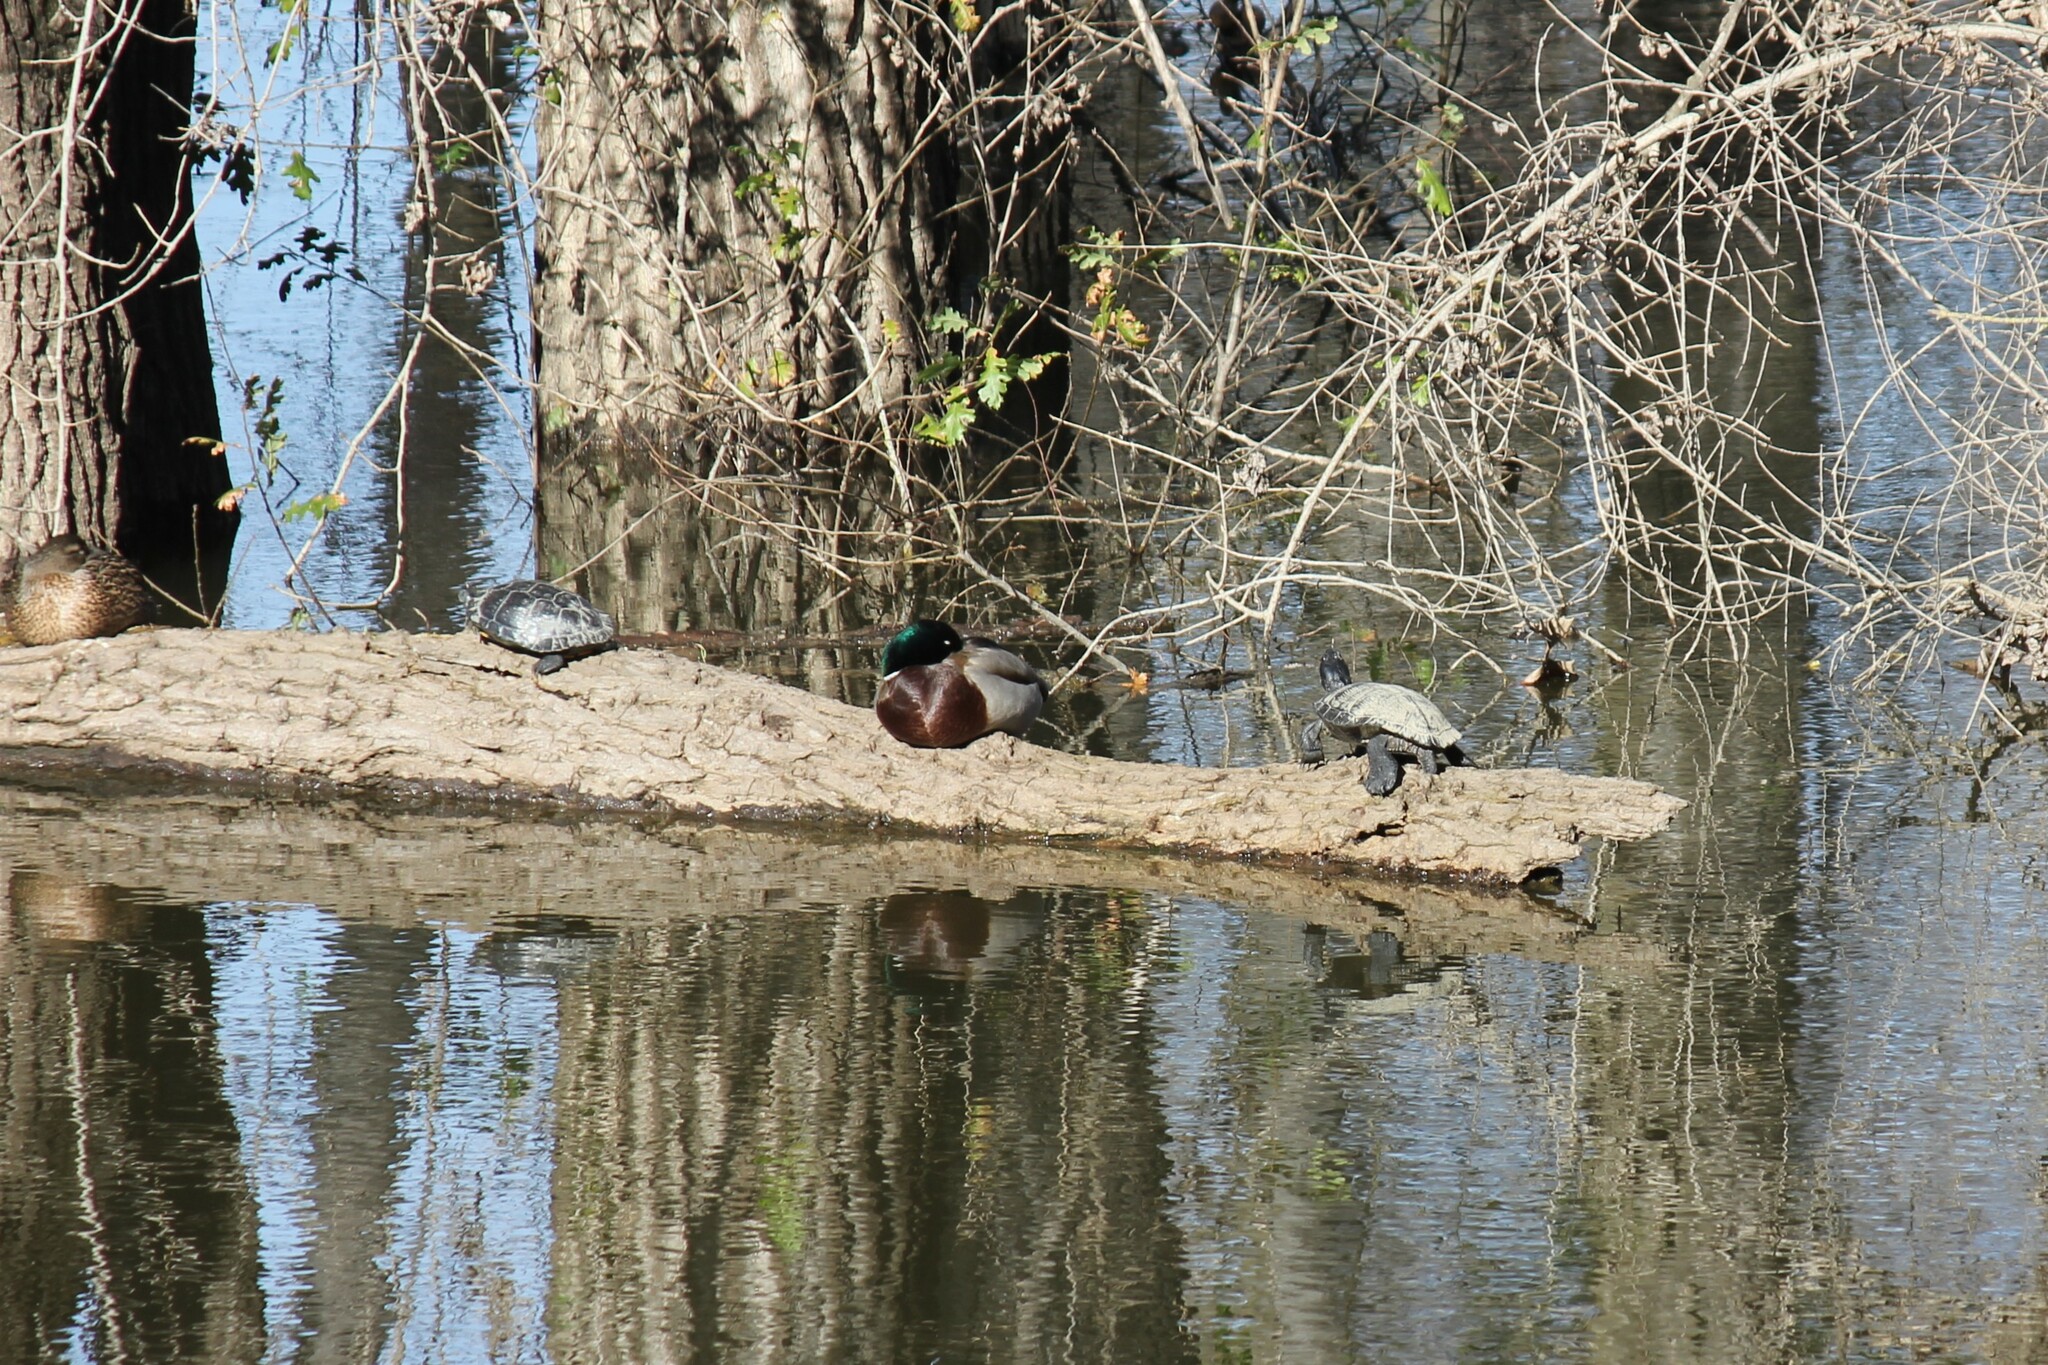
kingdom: Animalia
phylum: Chordata
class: Testudines
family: Emydidae
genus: Trachemys
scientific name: Trachemys scripta
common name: Slider
